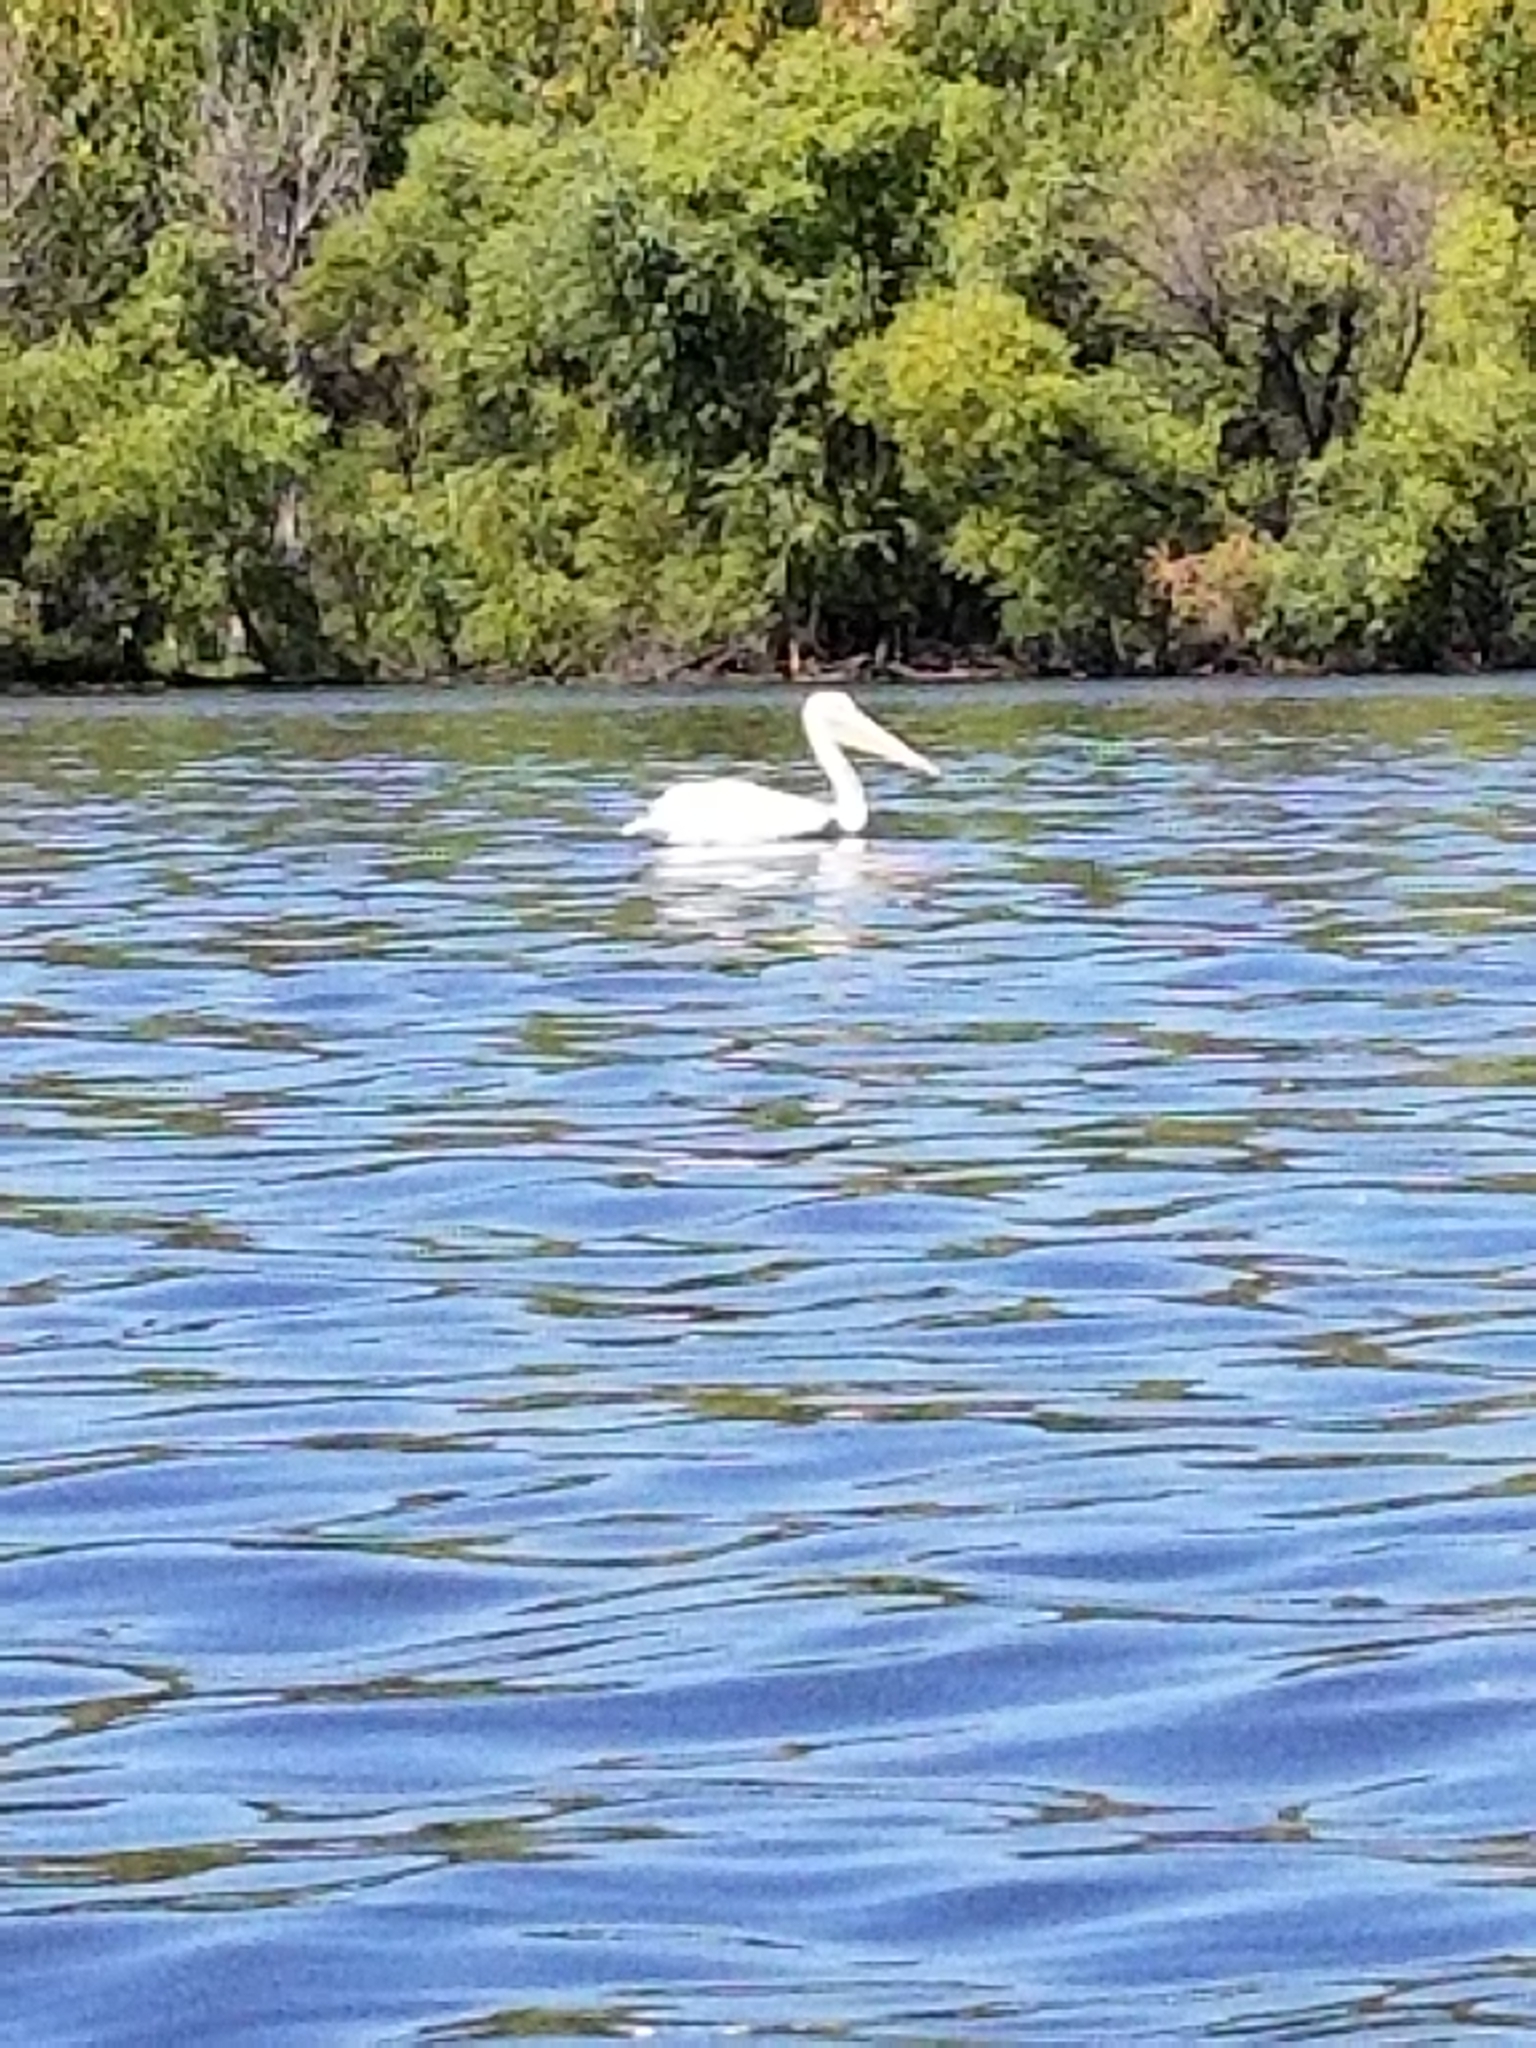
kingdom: Animalia
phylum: Chordata
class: Aves
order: Pelecaniformes
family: Pelecanidae
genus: Pelecanus
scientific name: Pelecanus erythrorhynchos
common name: American white pelican
